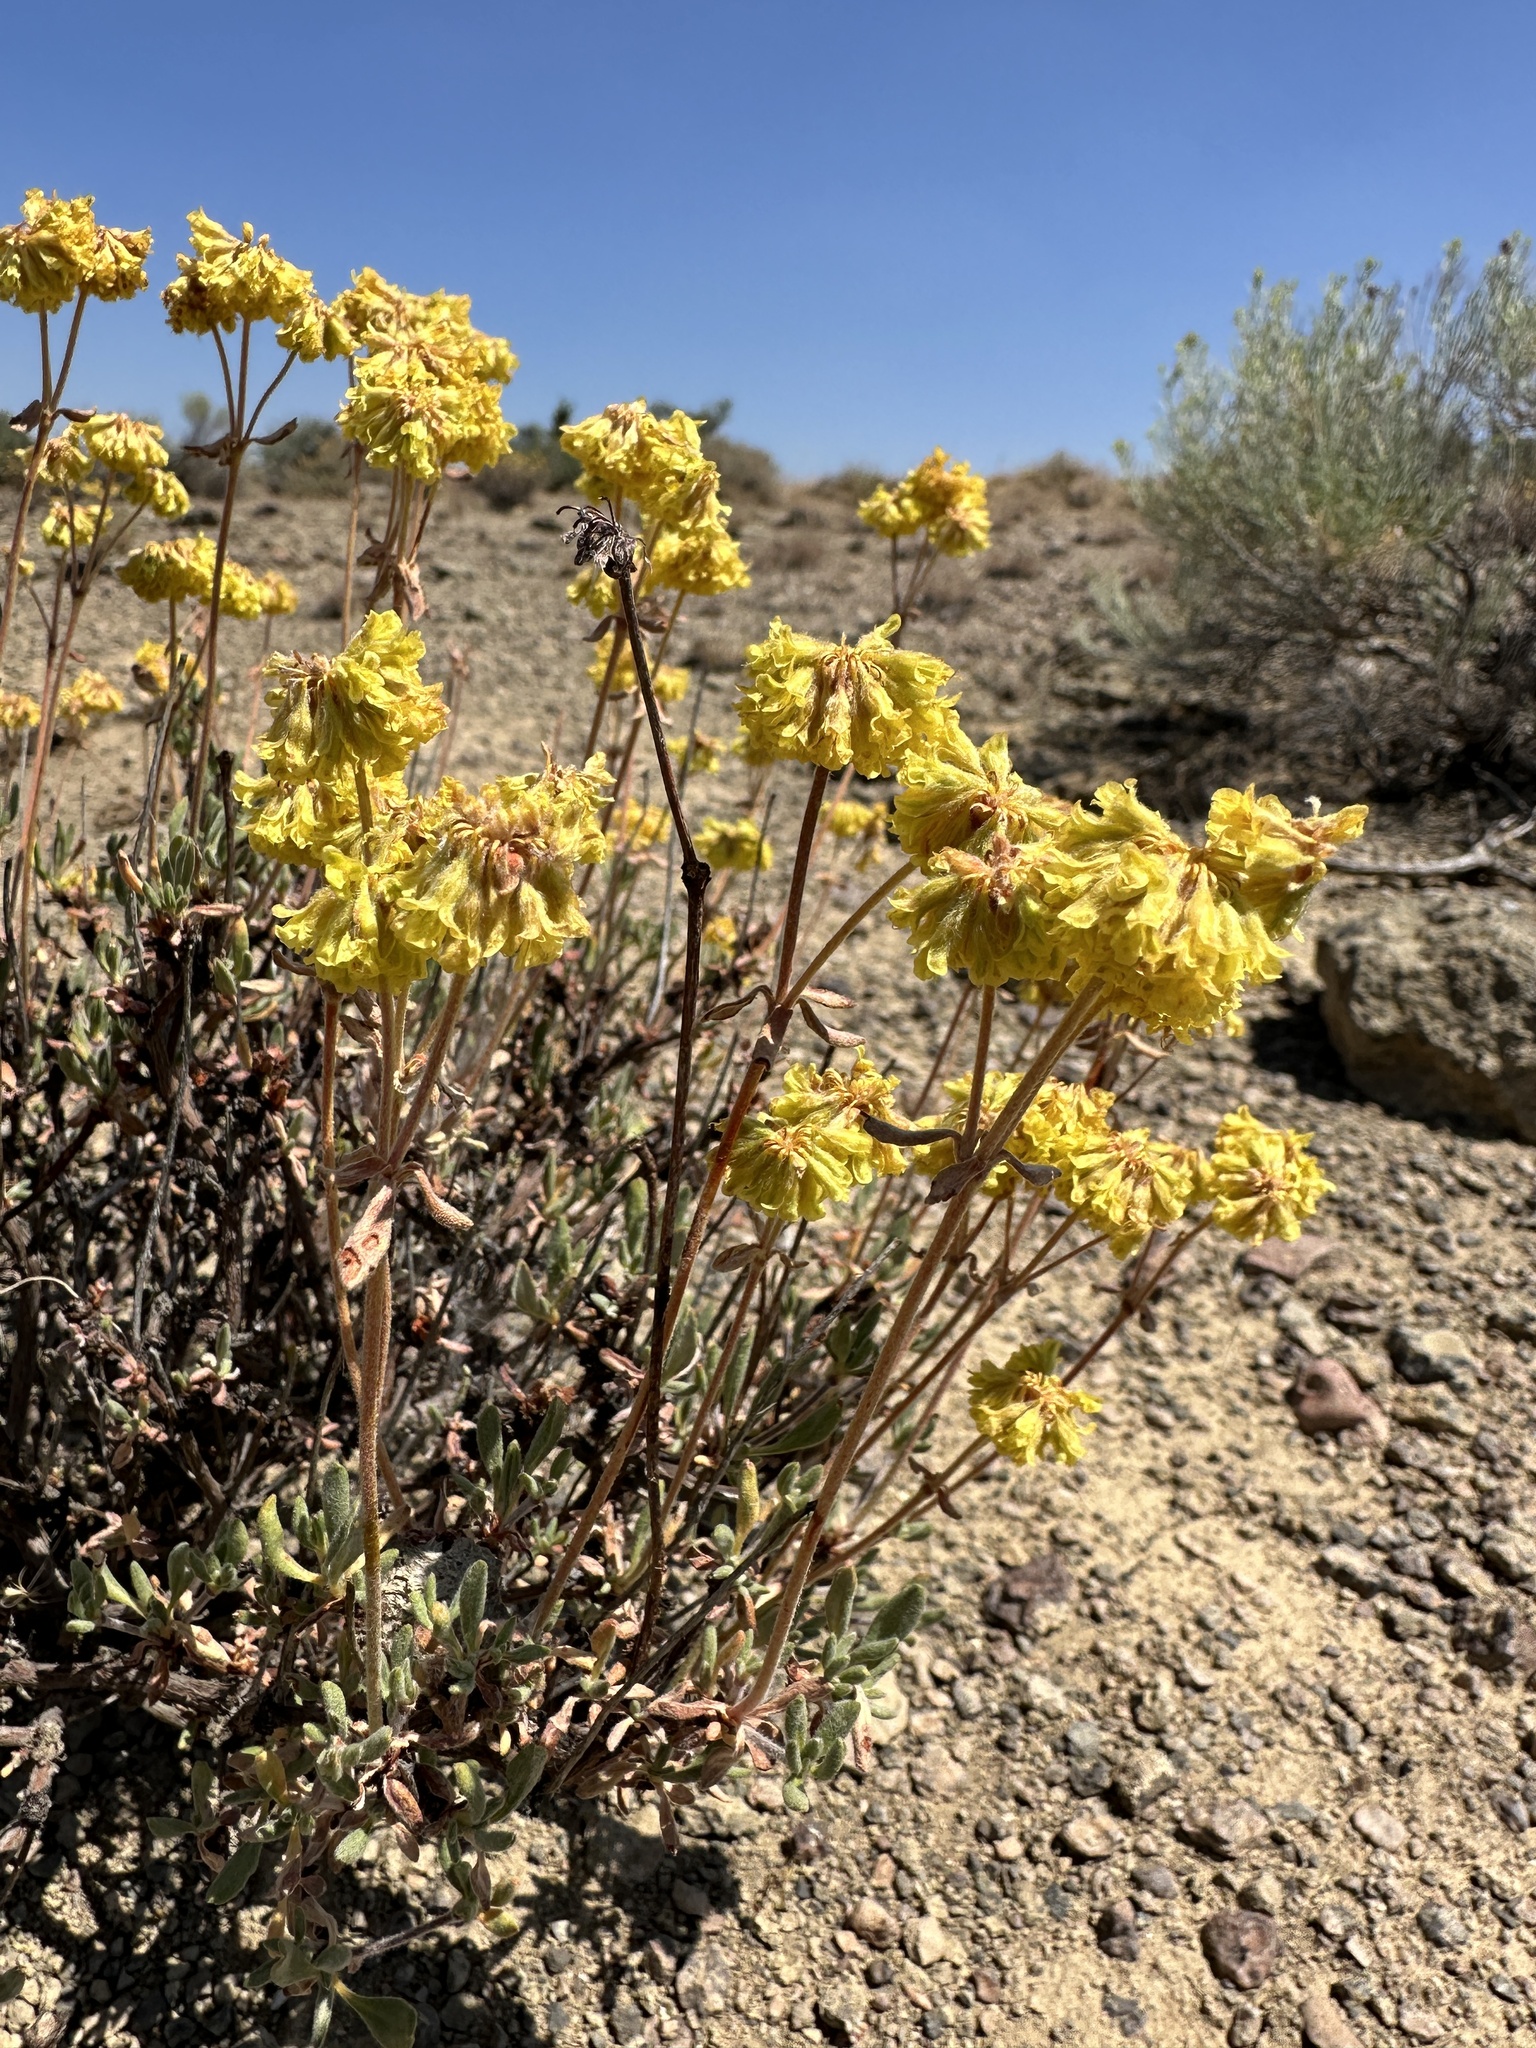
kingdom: Plantae
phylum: Tracheophyta
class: Magnoliopsida
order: Caryophyllales
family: Polygonaceae
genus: Eriogonum
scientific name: Eriogonum sphaerocephalum
